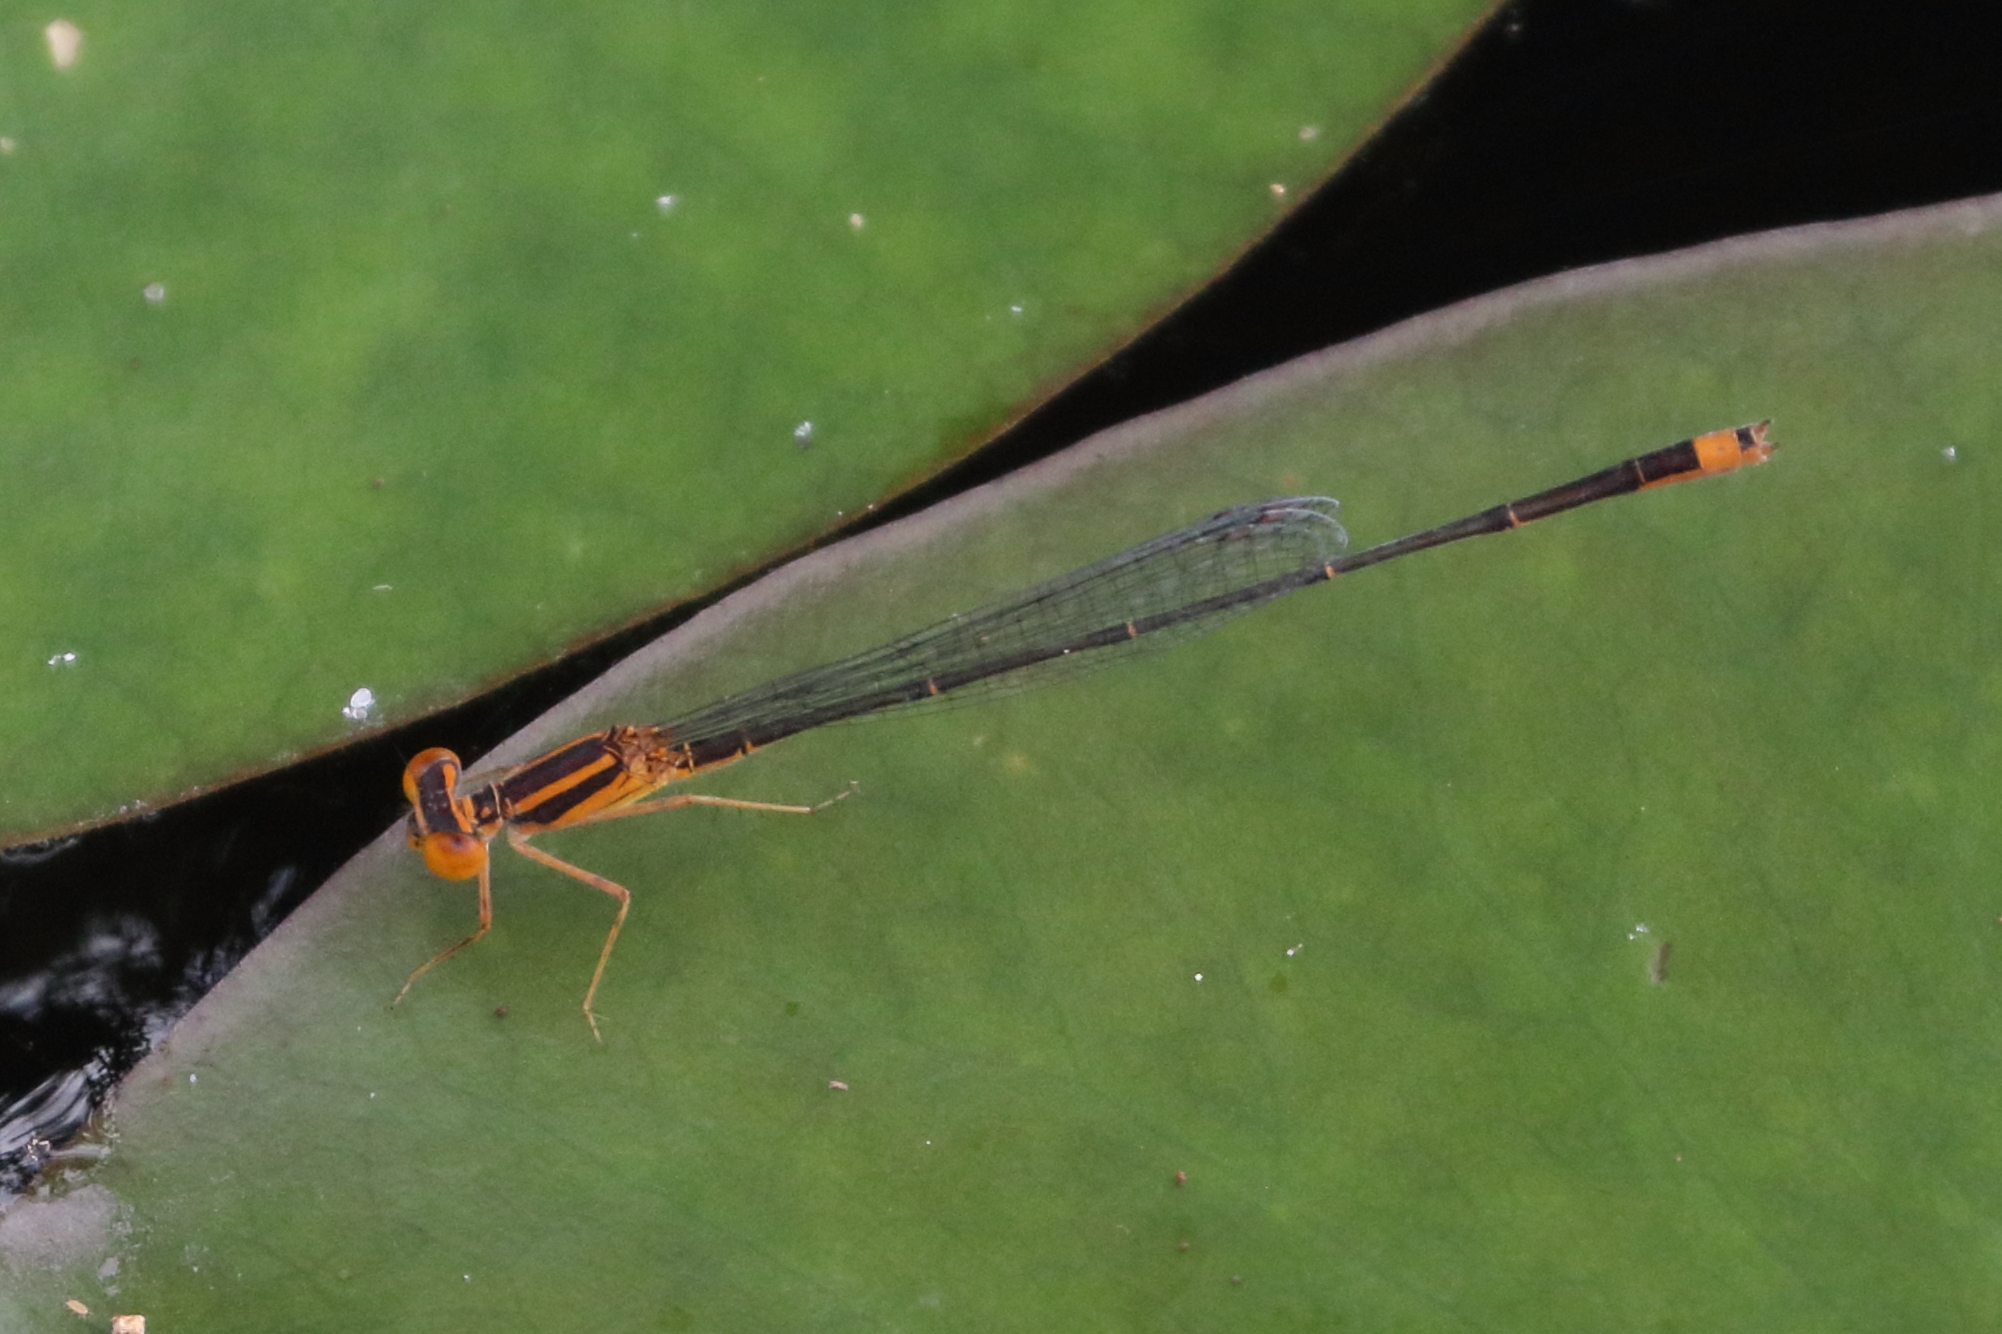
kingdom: Animalia
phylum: Arthropoda
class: Insecta
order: Odonata
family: Coenagrionidae
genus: Enallagma
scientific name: Enallagma pollutum
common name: Florida bluet
